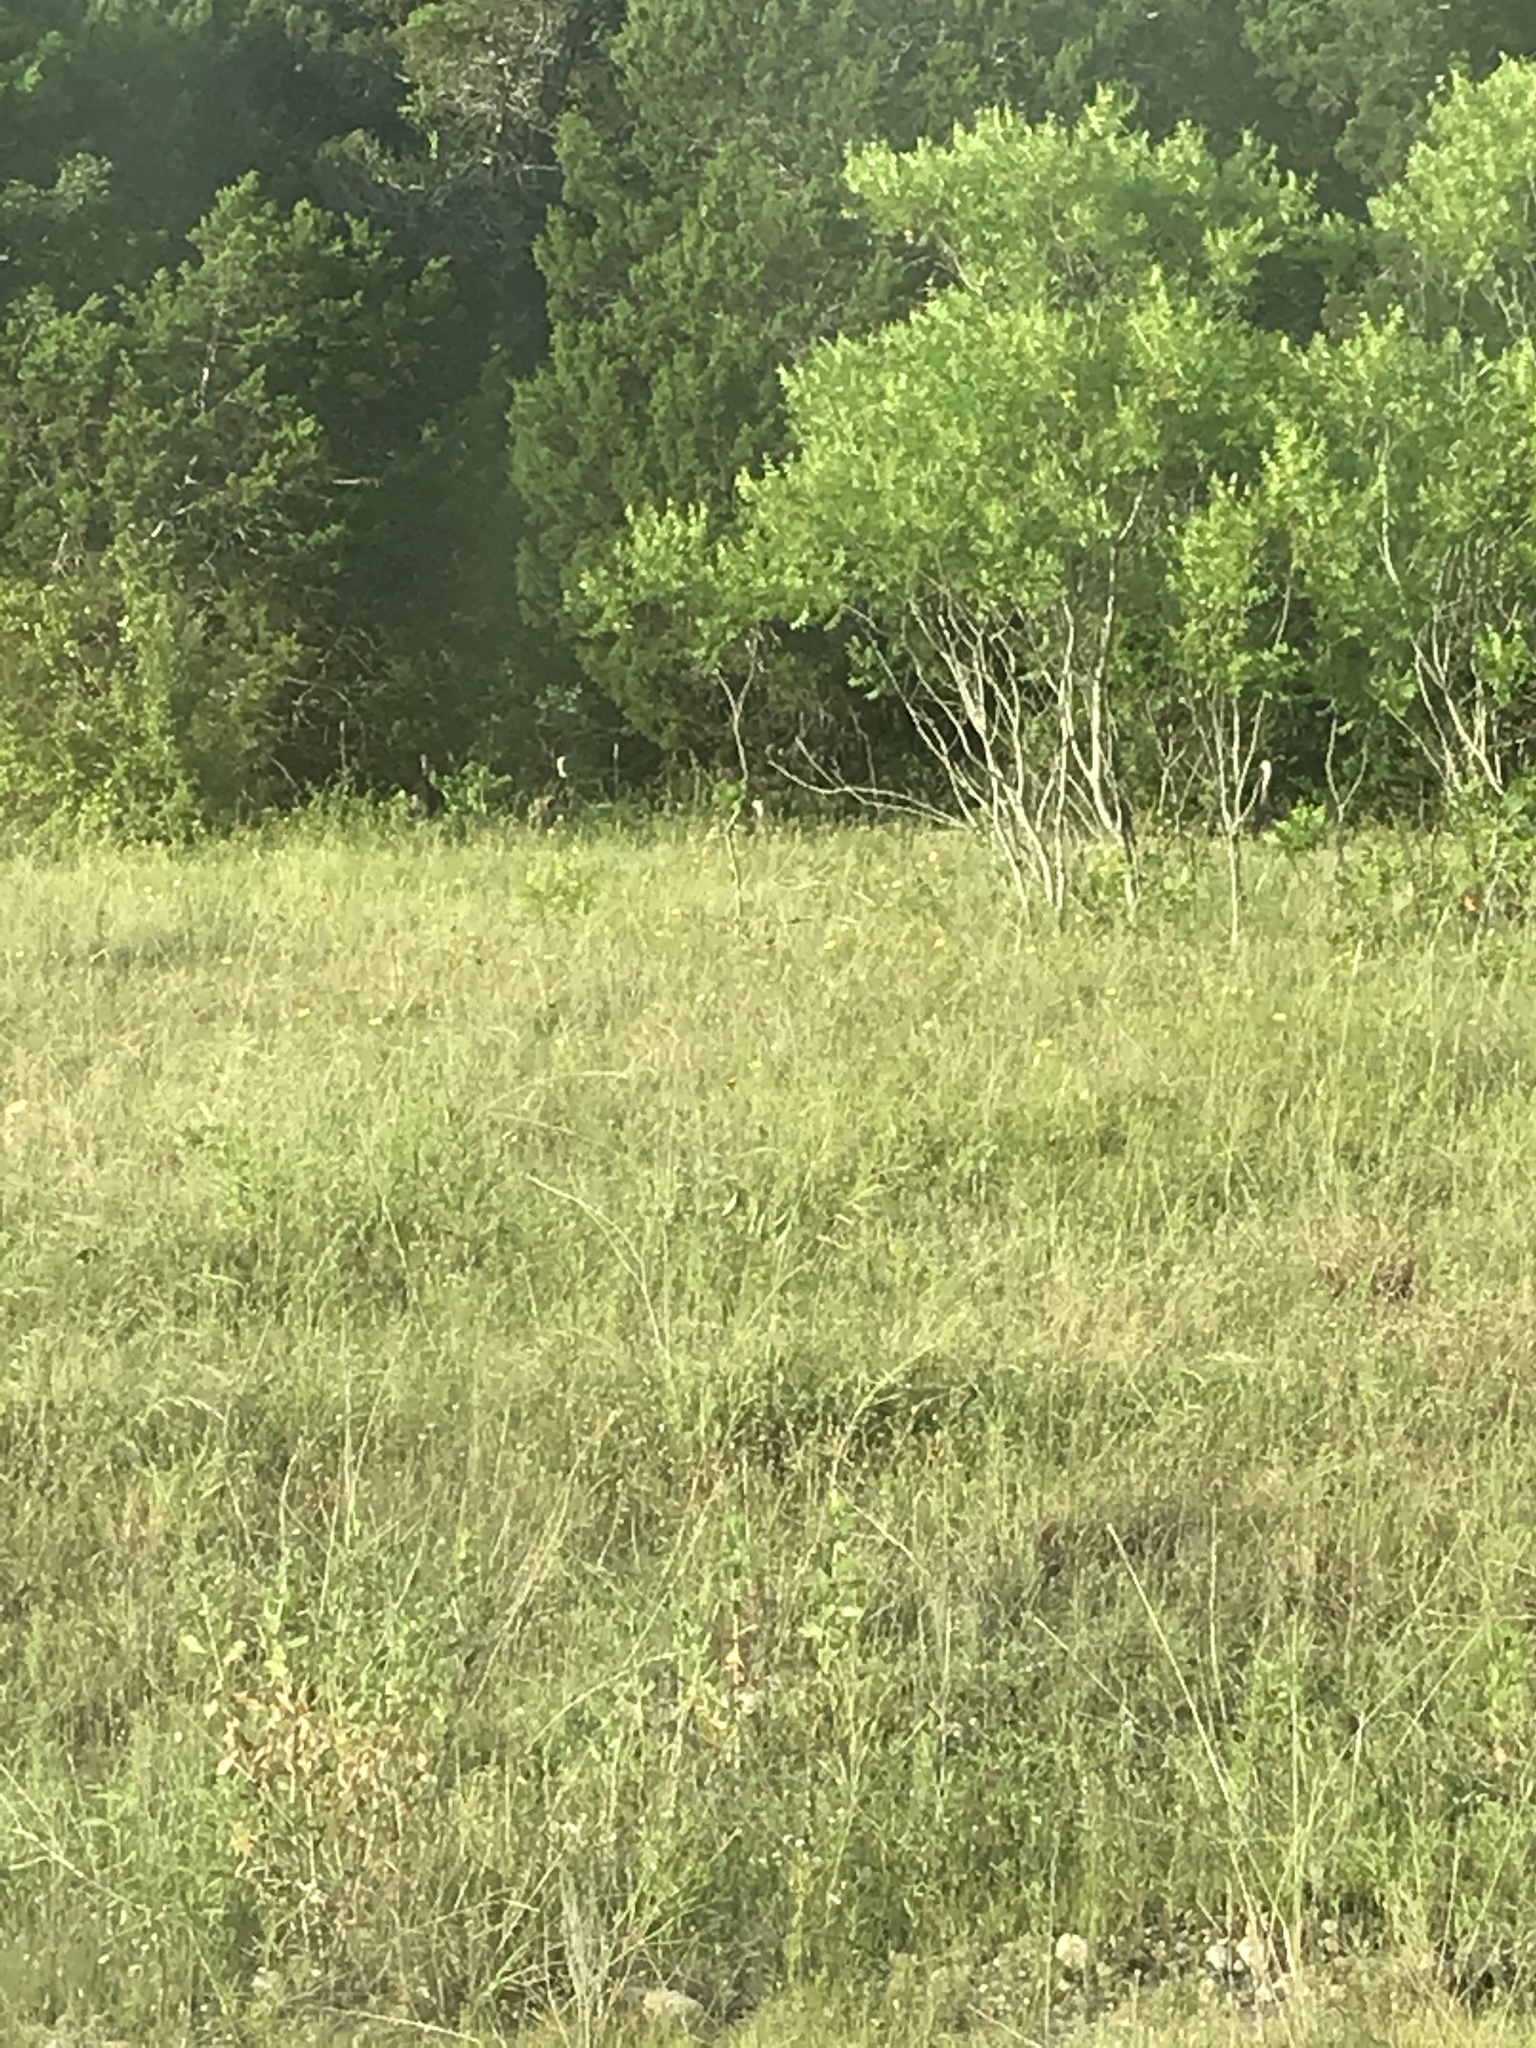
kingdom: Animalia
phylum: Chordata
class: Aves
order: Galliformes
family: Phasianidae
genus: Meleagris
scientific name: Meleagris gallopavo
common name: Wild turkey
